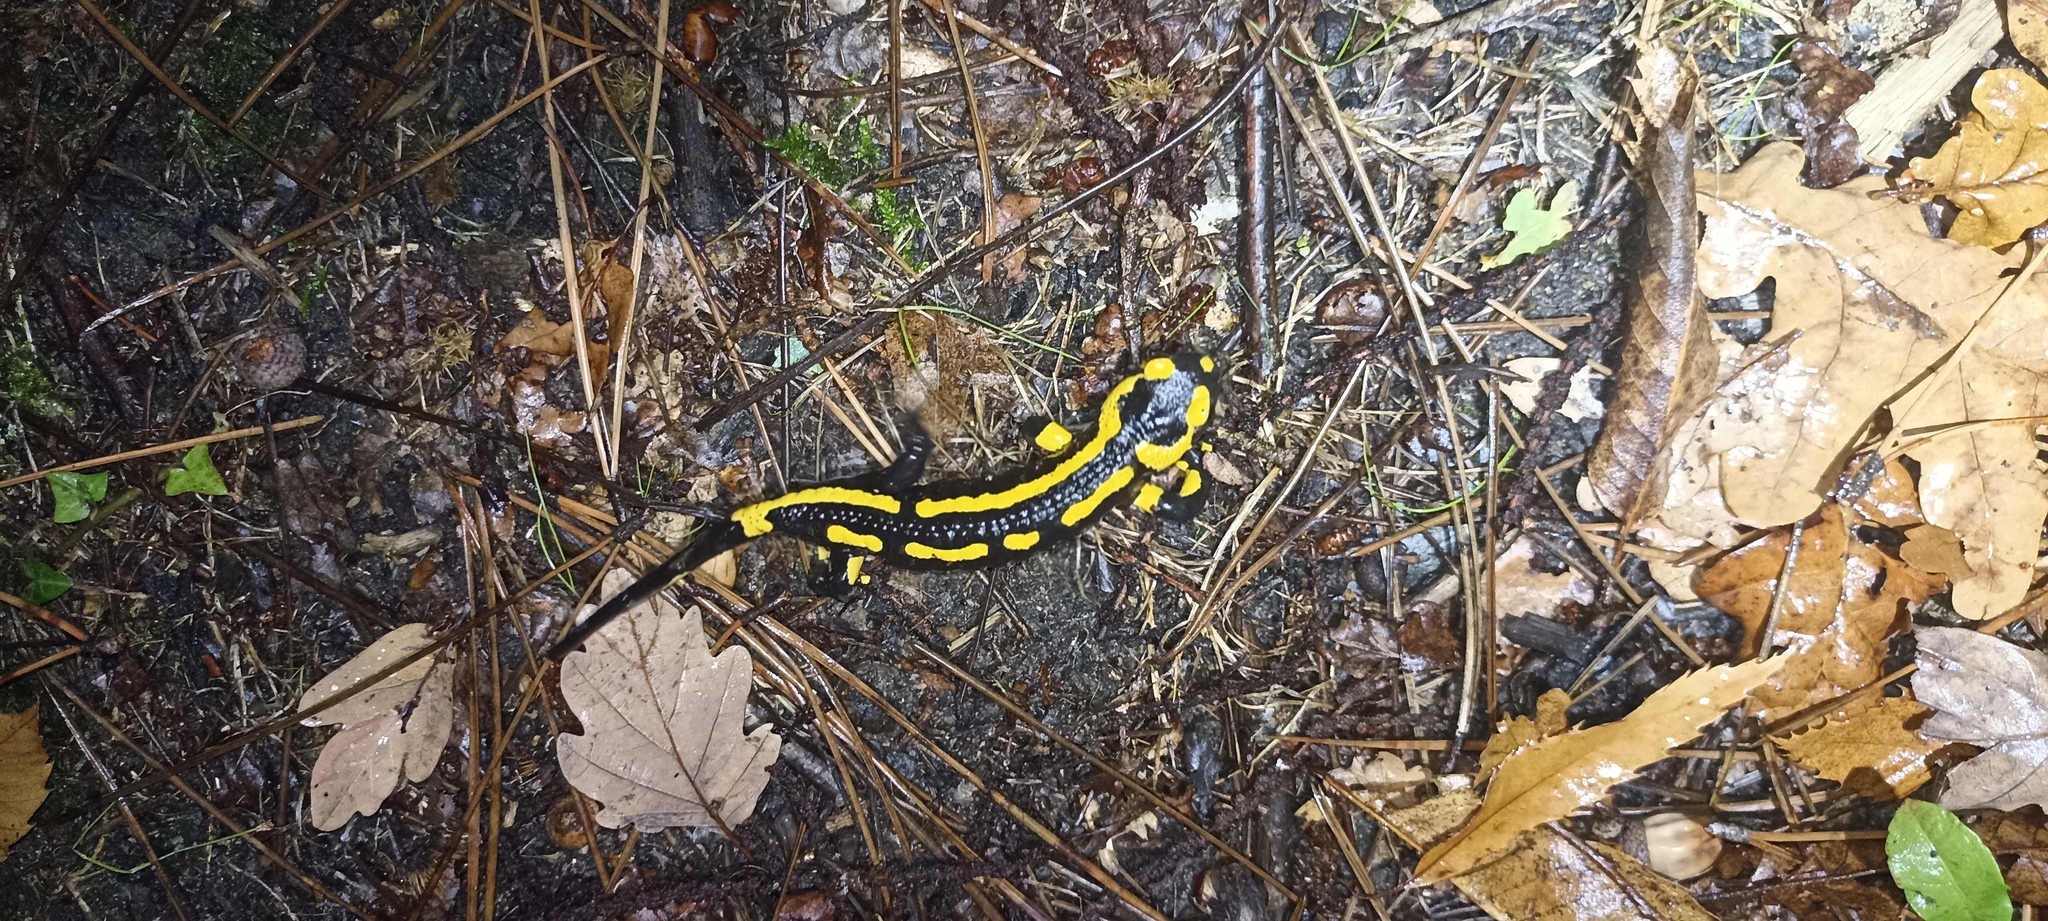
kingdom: Animalia
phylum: Chordata
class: Amphibia
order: Caudata
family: Salamandridae
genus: Salamandra
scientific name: Salamandra salamandra
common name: Fire salamander
